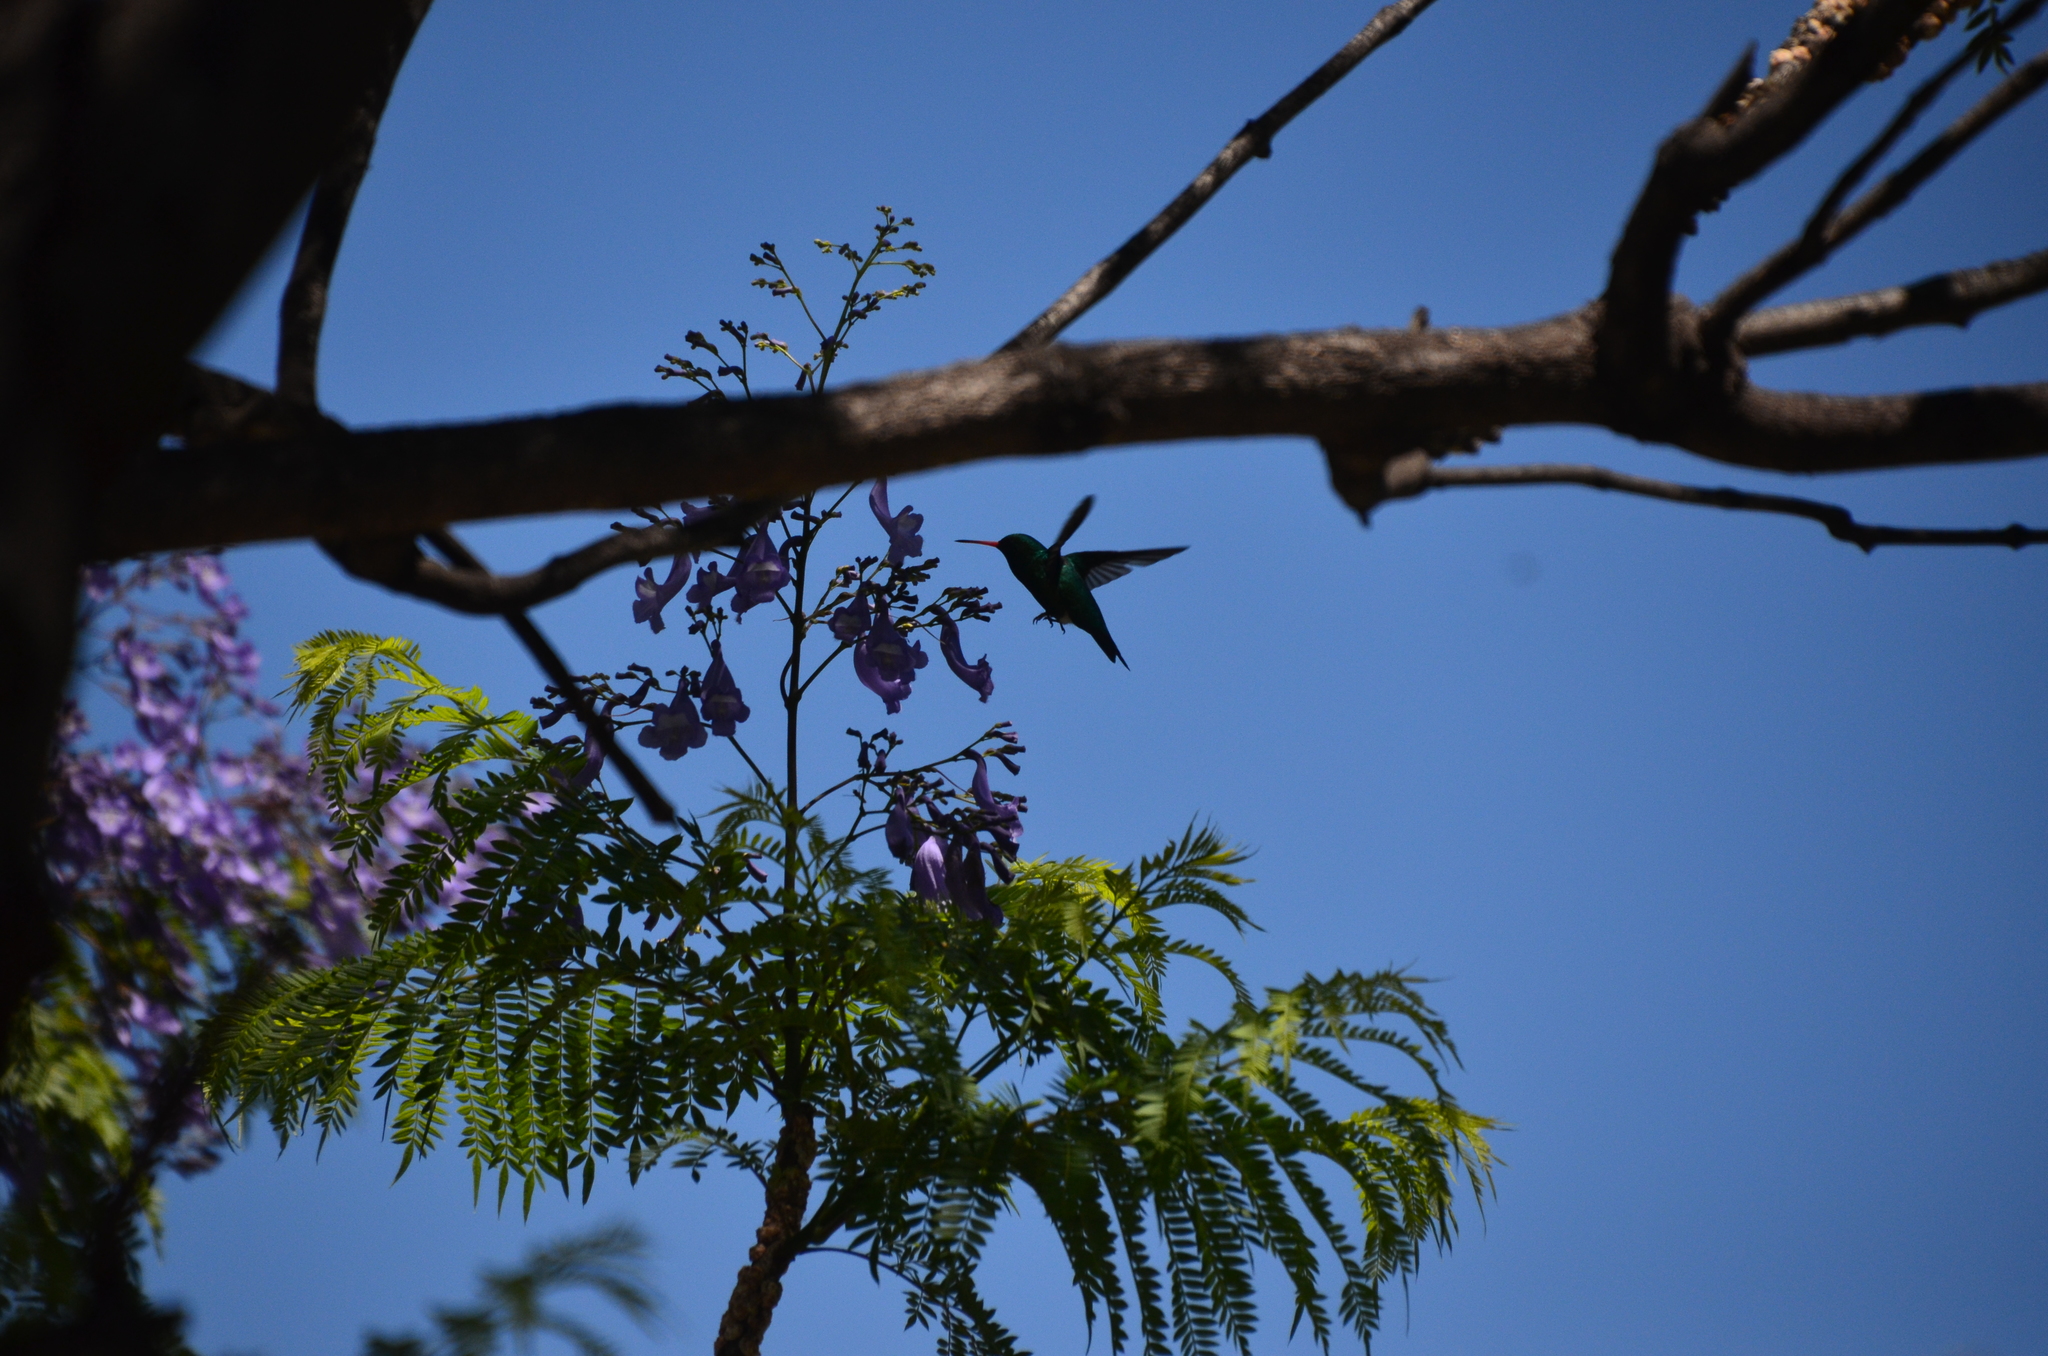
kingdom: Animalia
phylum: Chordata
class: Aves
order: Apodiformes
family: Trochilidae
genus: Chlorostilbon
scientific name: Chlorostilbon lucidus
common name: Glittering-bellied emerald
